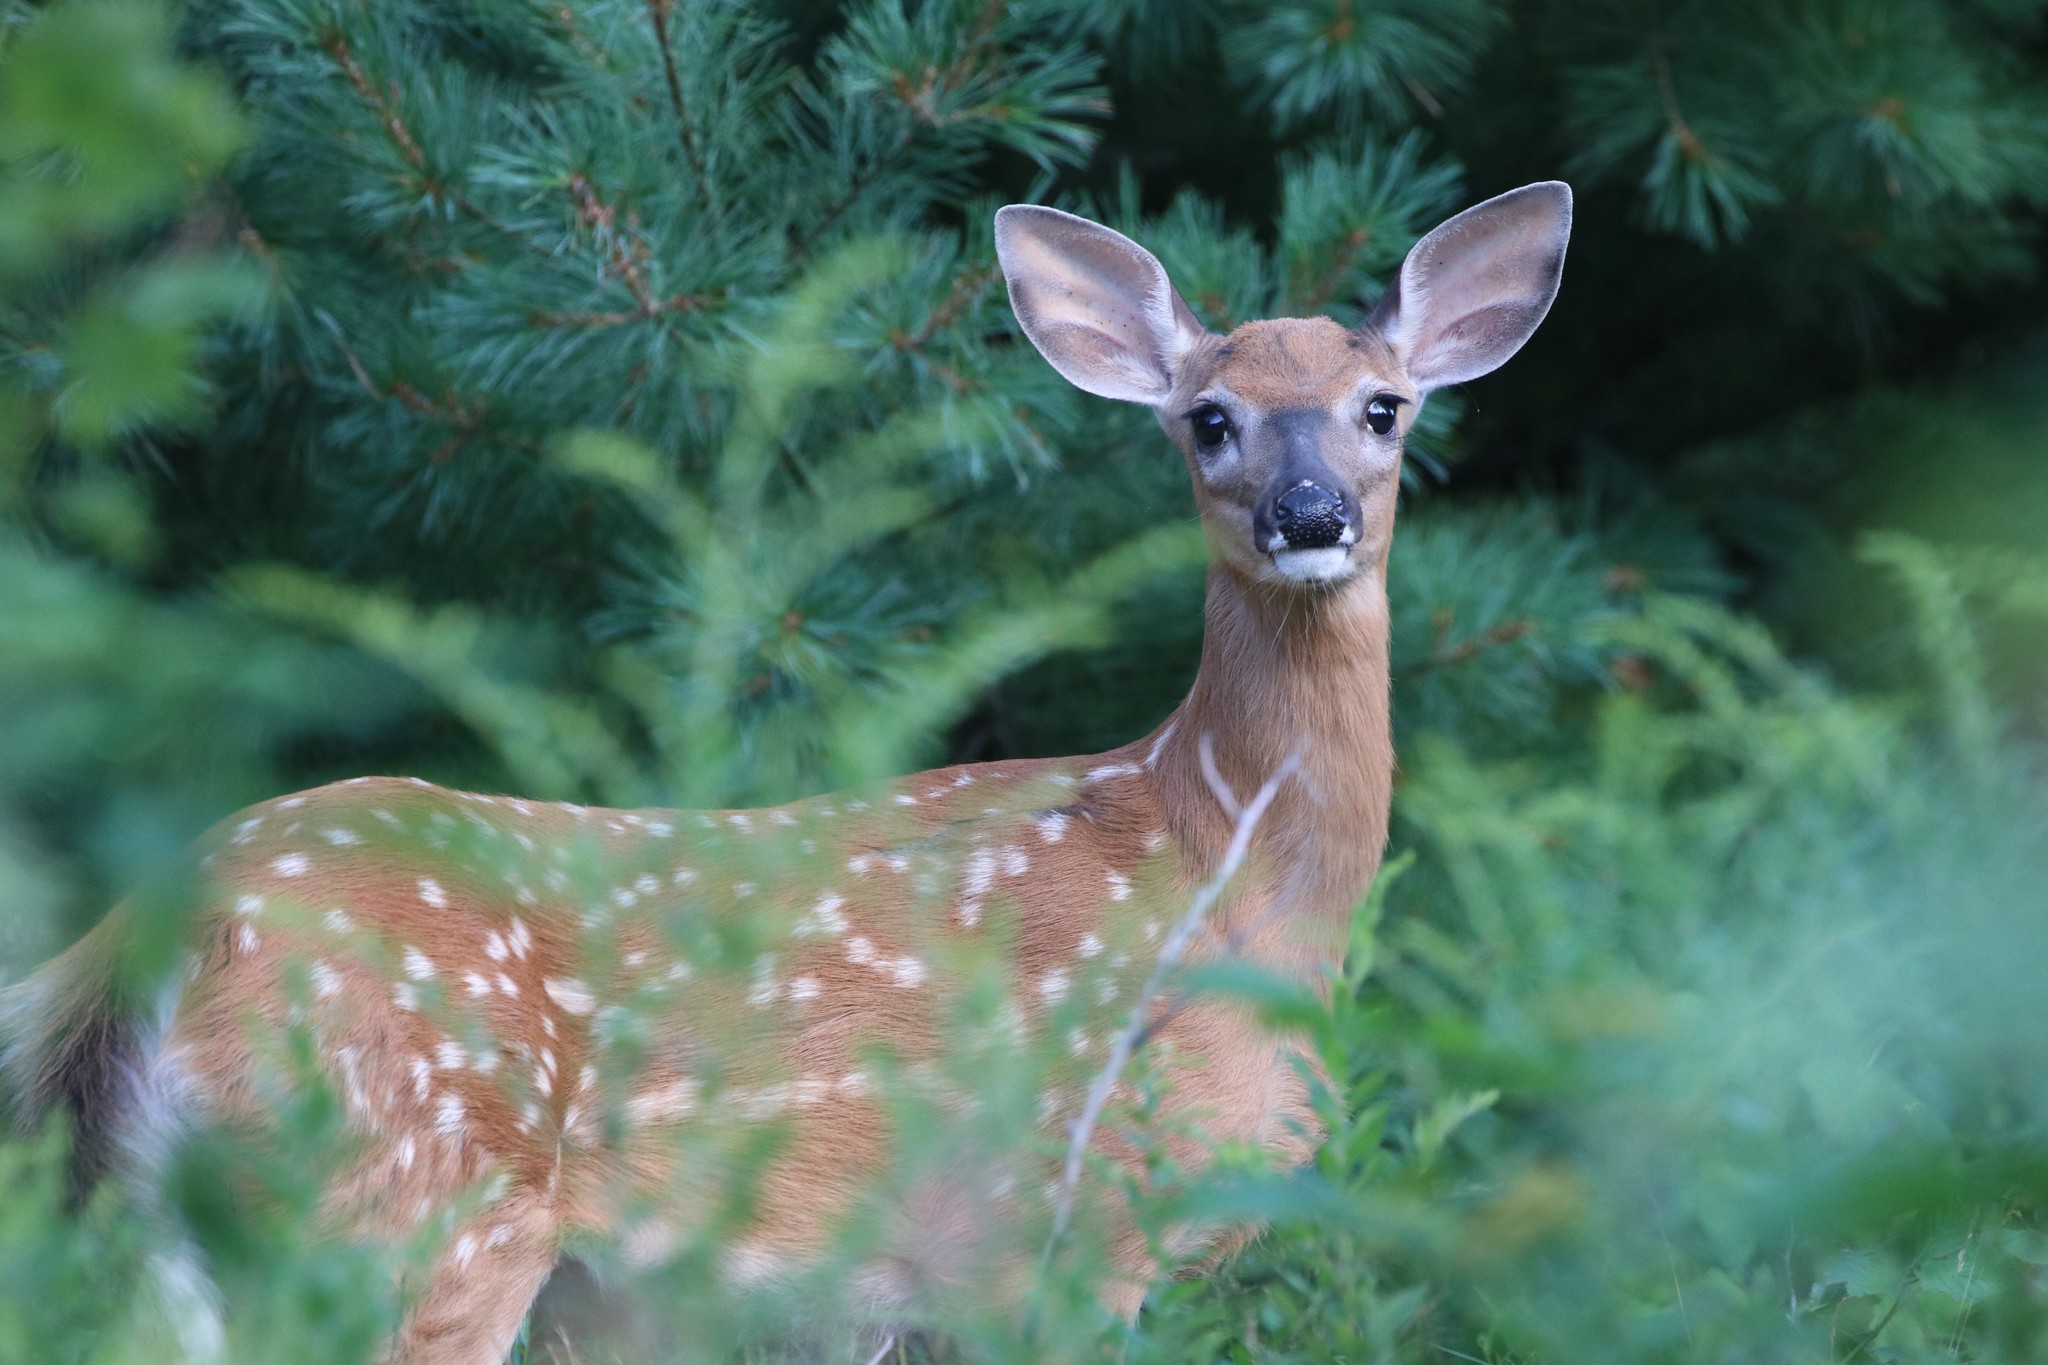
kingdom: Animalia
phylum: Chordata
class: Mammalia
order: Artiodactyla
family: Cervidae
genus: Odocoileus
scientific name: Odocoileus virginianus
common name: White-tailed deer
